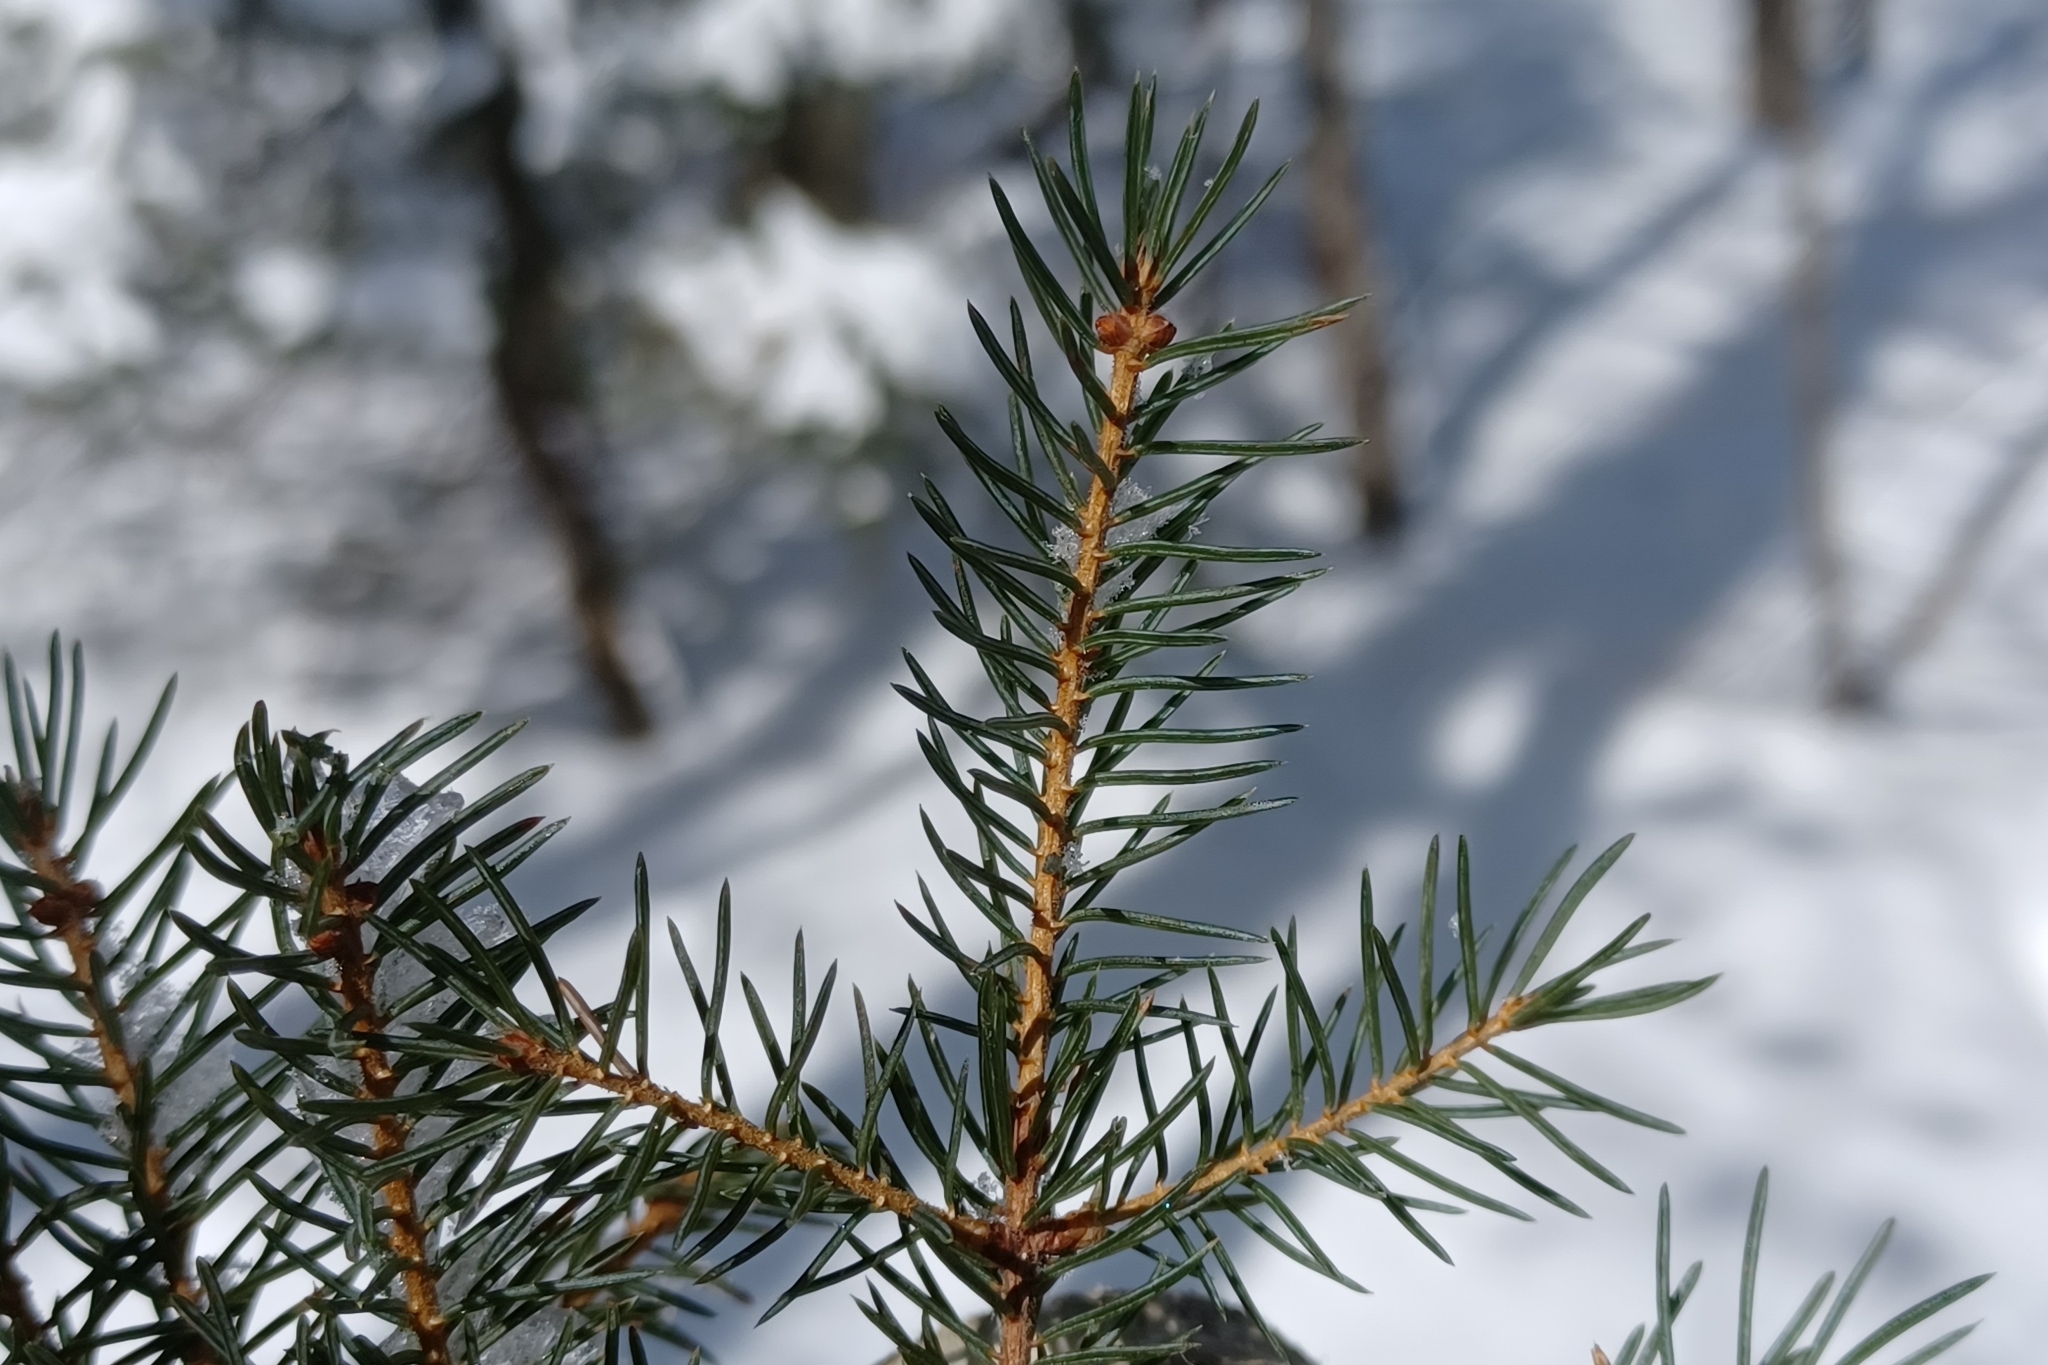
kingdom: Plantae
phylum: Tracheophyta
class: Pinopsida
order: Pinales
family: Pinaceae
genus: Picea
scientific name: Picea mariana
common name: Black spruce
